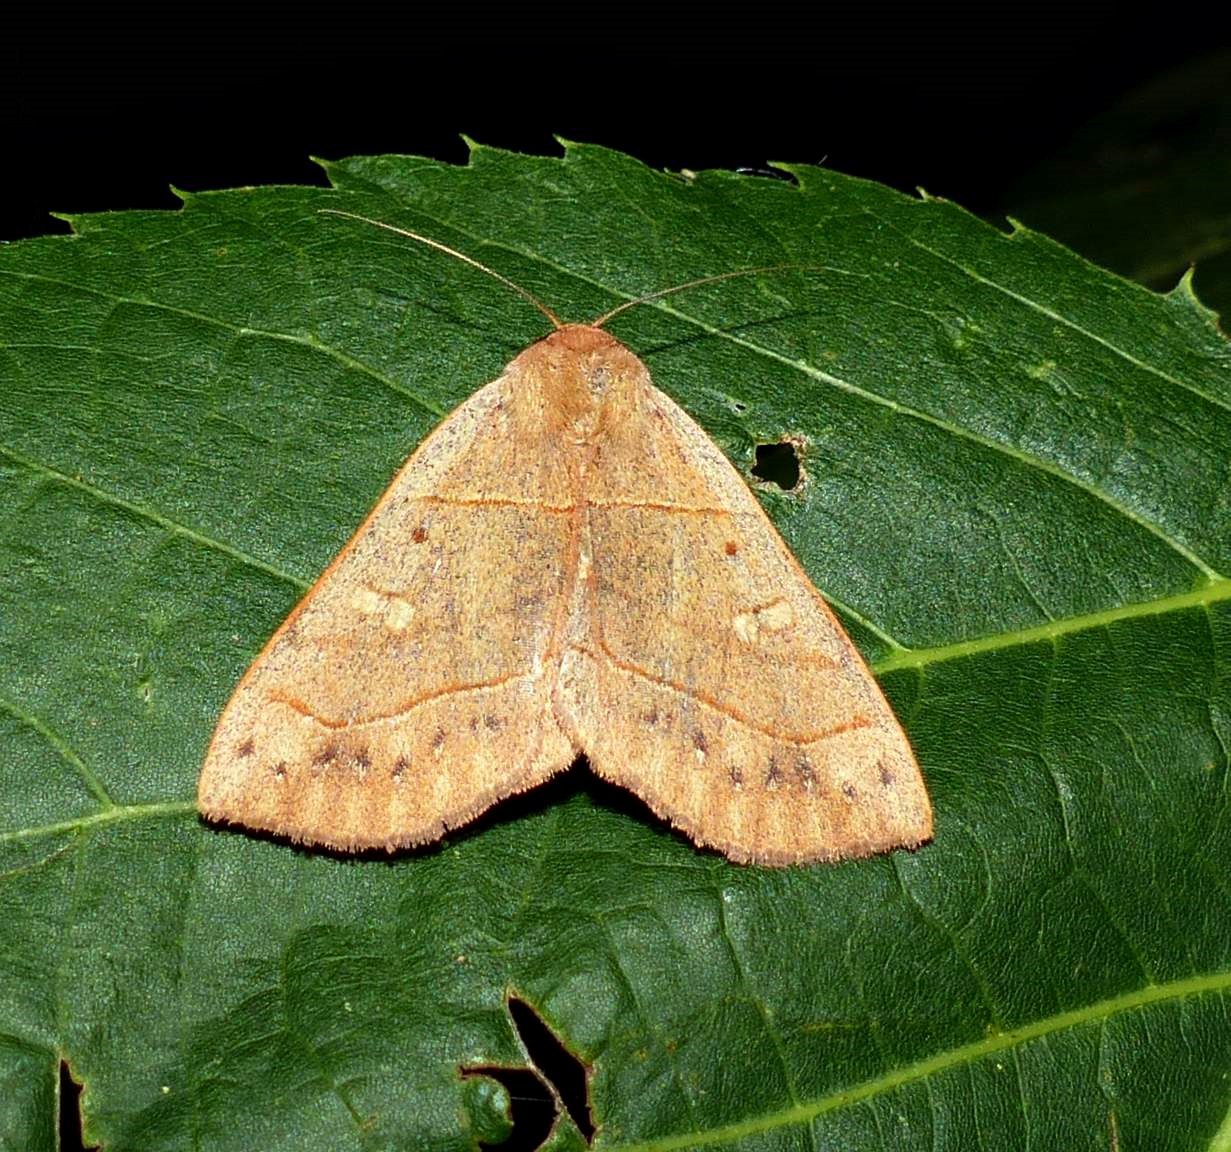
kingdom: Animalia
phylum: Arthropoda
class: Insecta
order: Lepidoptera
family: Erebidae
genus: Panopoda
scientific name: Panopoda rufimargo
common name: Red-lined panopoda moth
